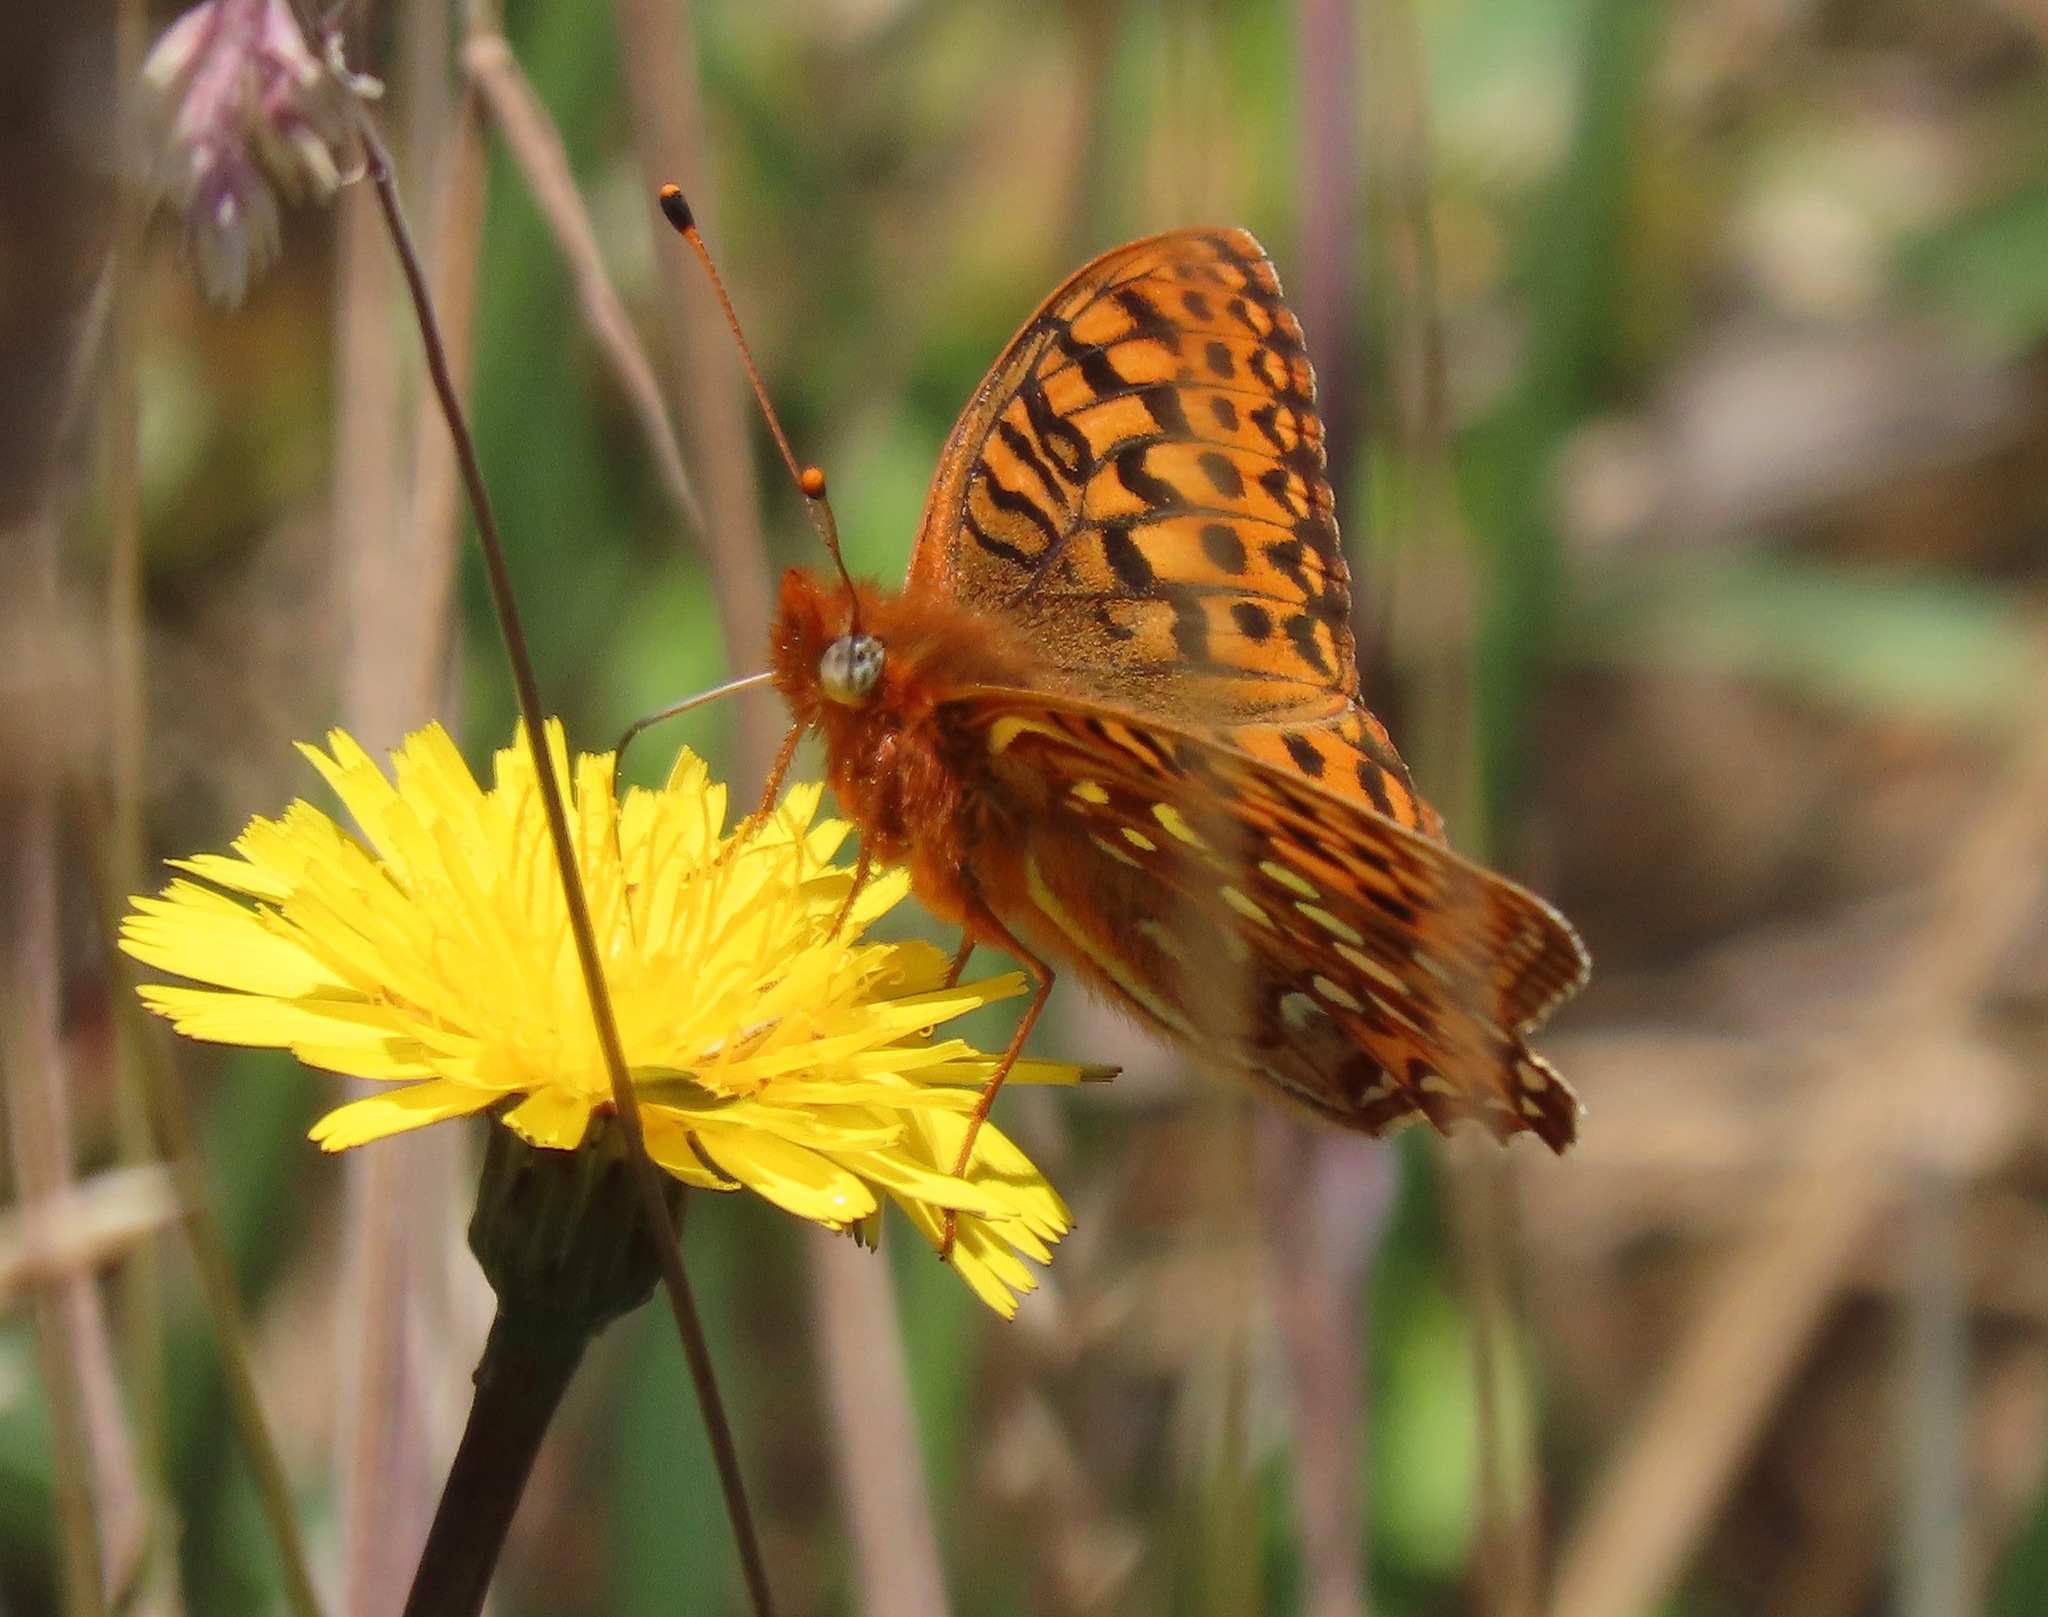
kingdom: Animalia
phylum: Arthropoda
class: Insecta
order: Lepidoptera
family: Nymphalidae
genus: Speyeria
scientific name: Speyeria zerene
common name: Zerene fritillary
